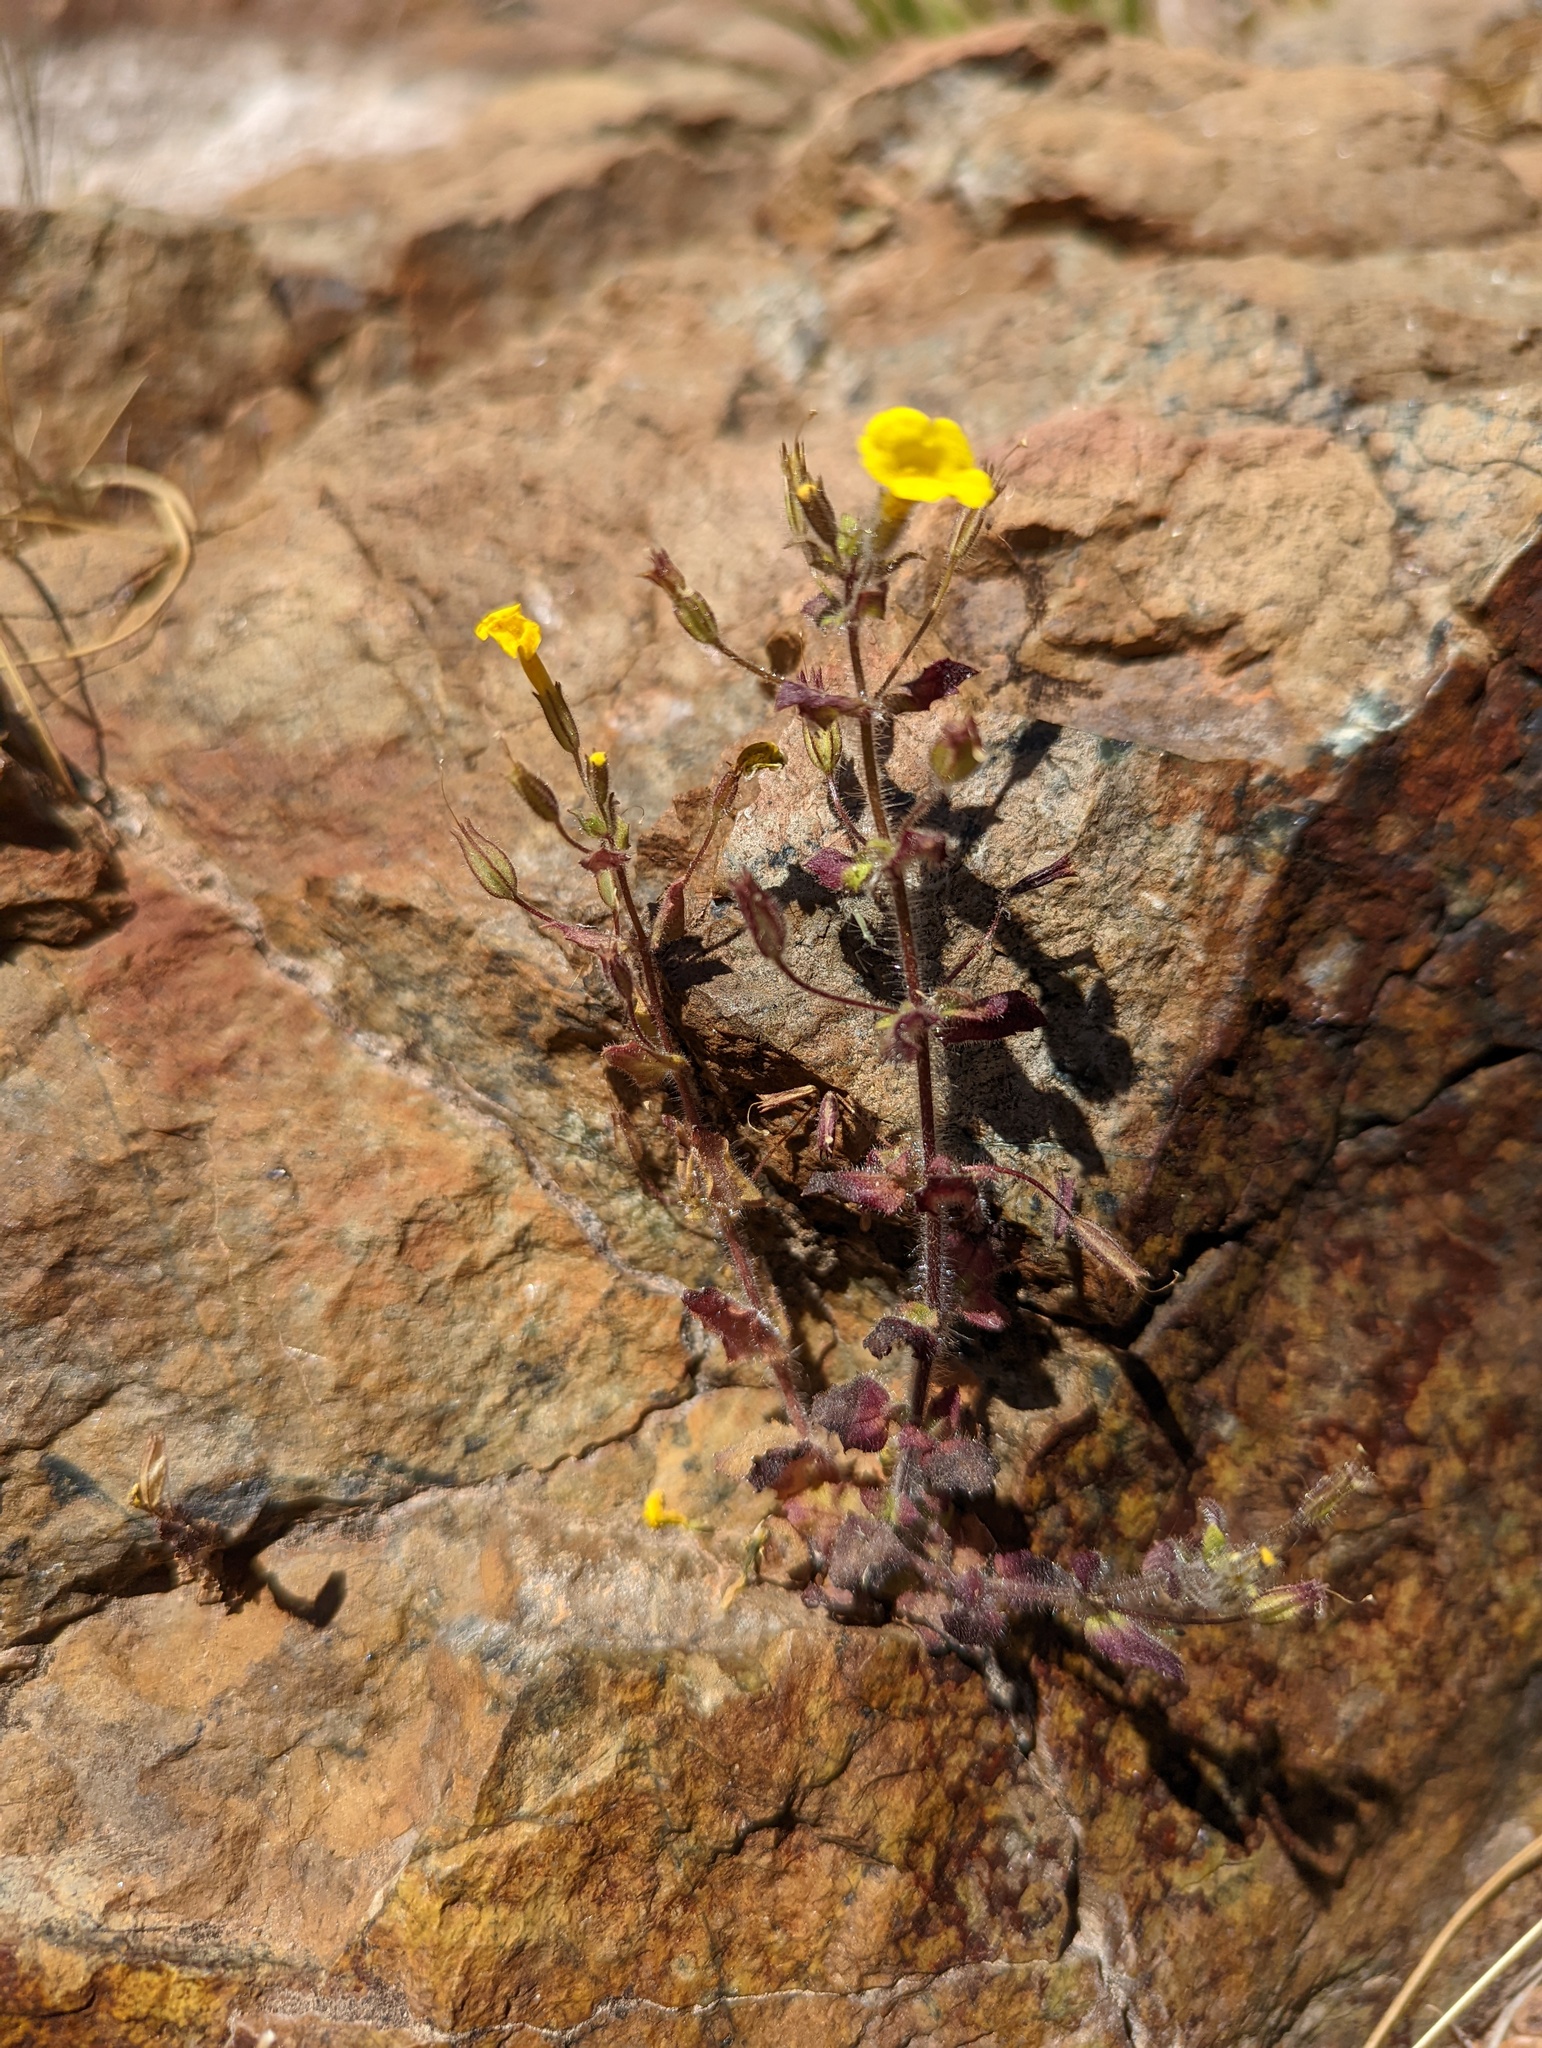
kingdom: Plantae
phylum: Tracheophyta
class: Magnoliopsida
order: Lamiales
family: Phrymaceae
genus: Erythranthe
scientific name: Erythranthe arenaria
